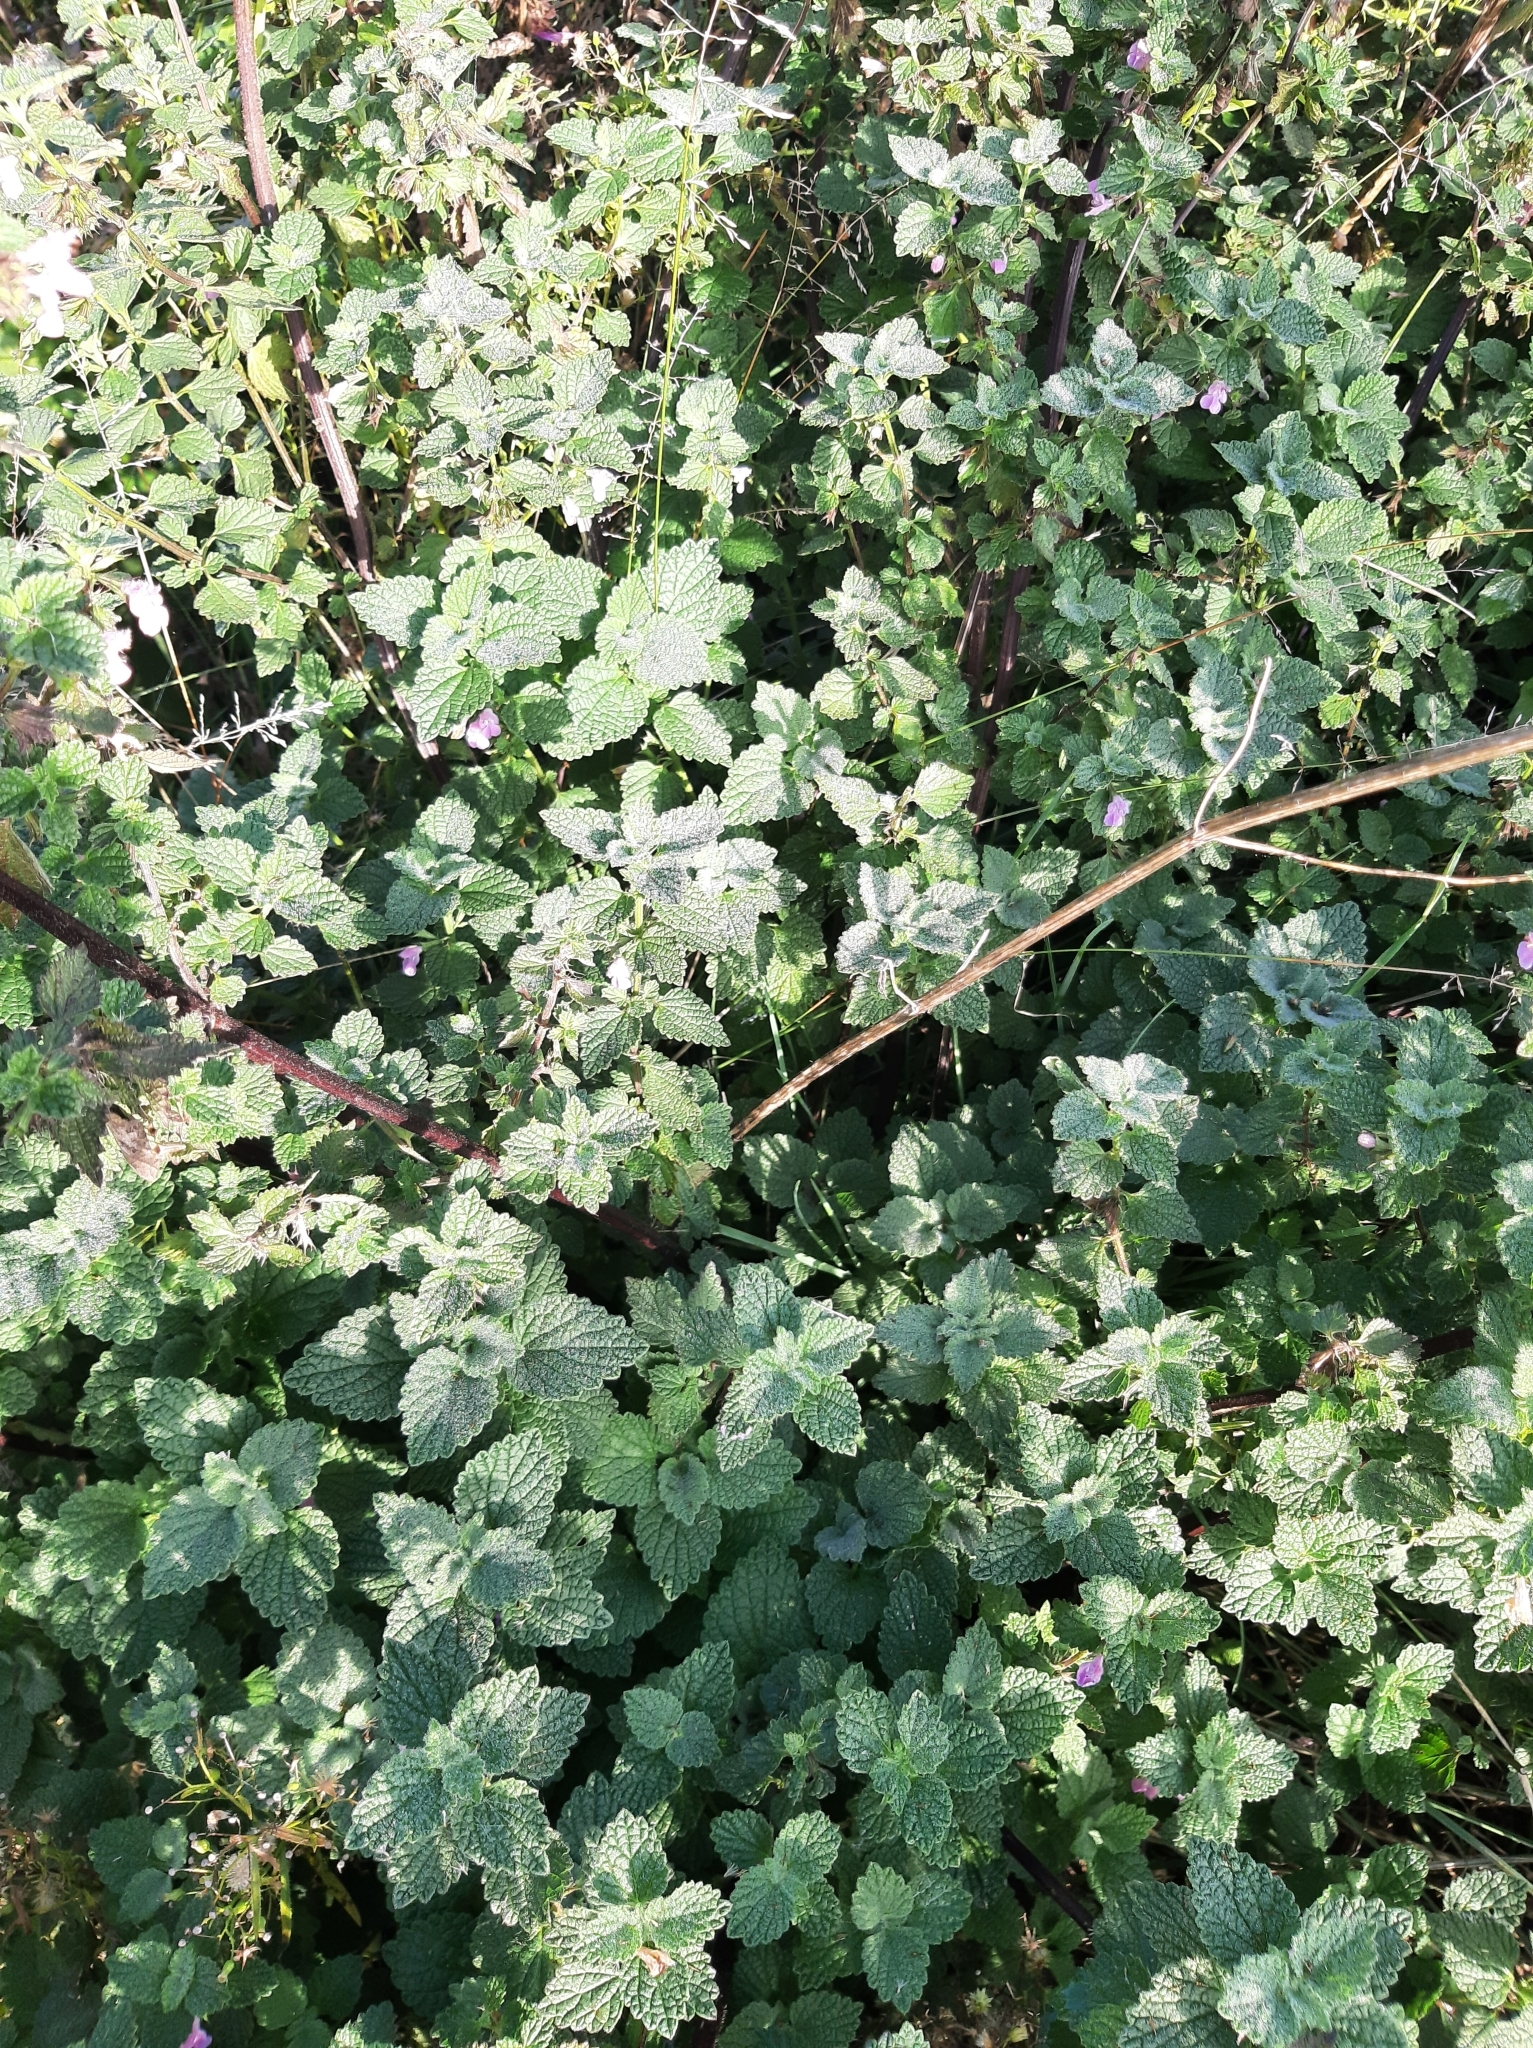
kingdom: Plantae
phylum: Tracheophyta
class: Magnoliopsida
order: Lamiales
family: Lamiaceae
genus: Ballota
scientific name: Ballota nigra
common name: Black horehound
